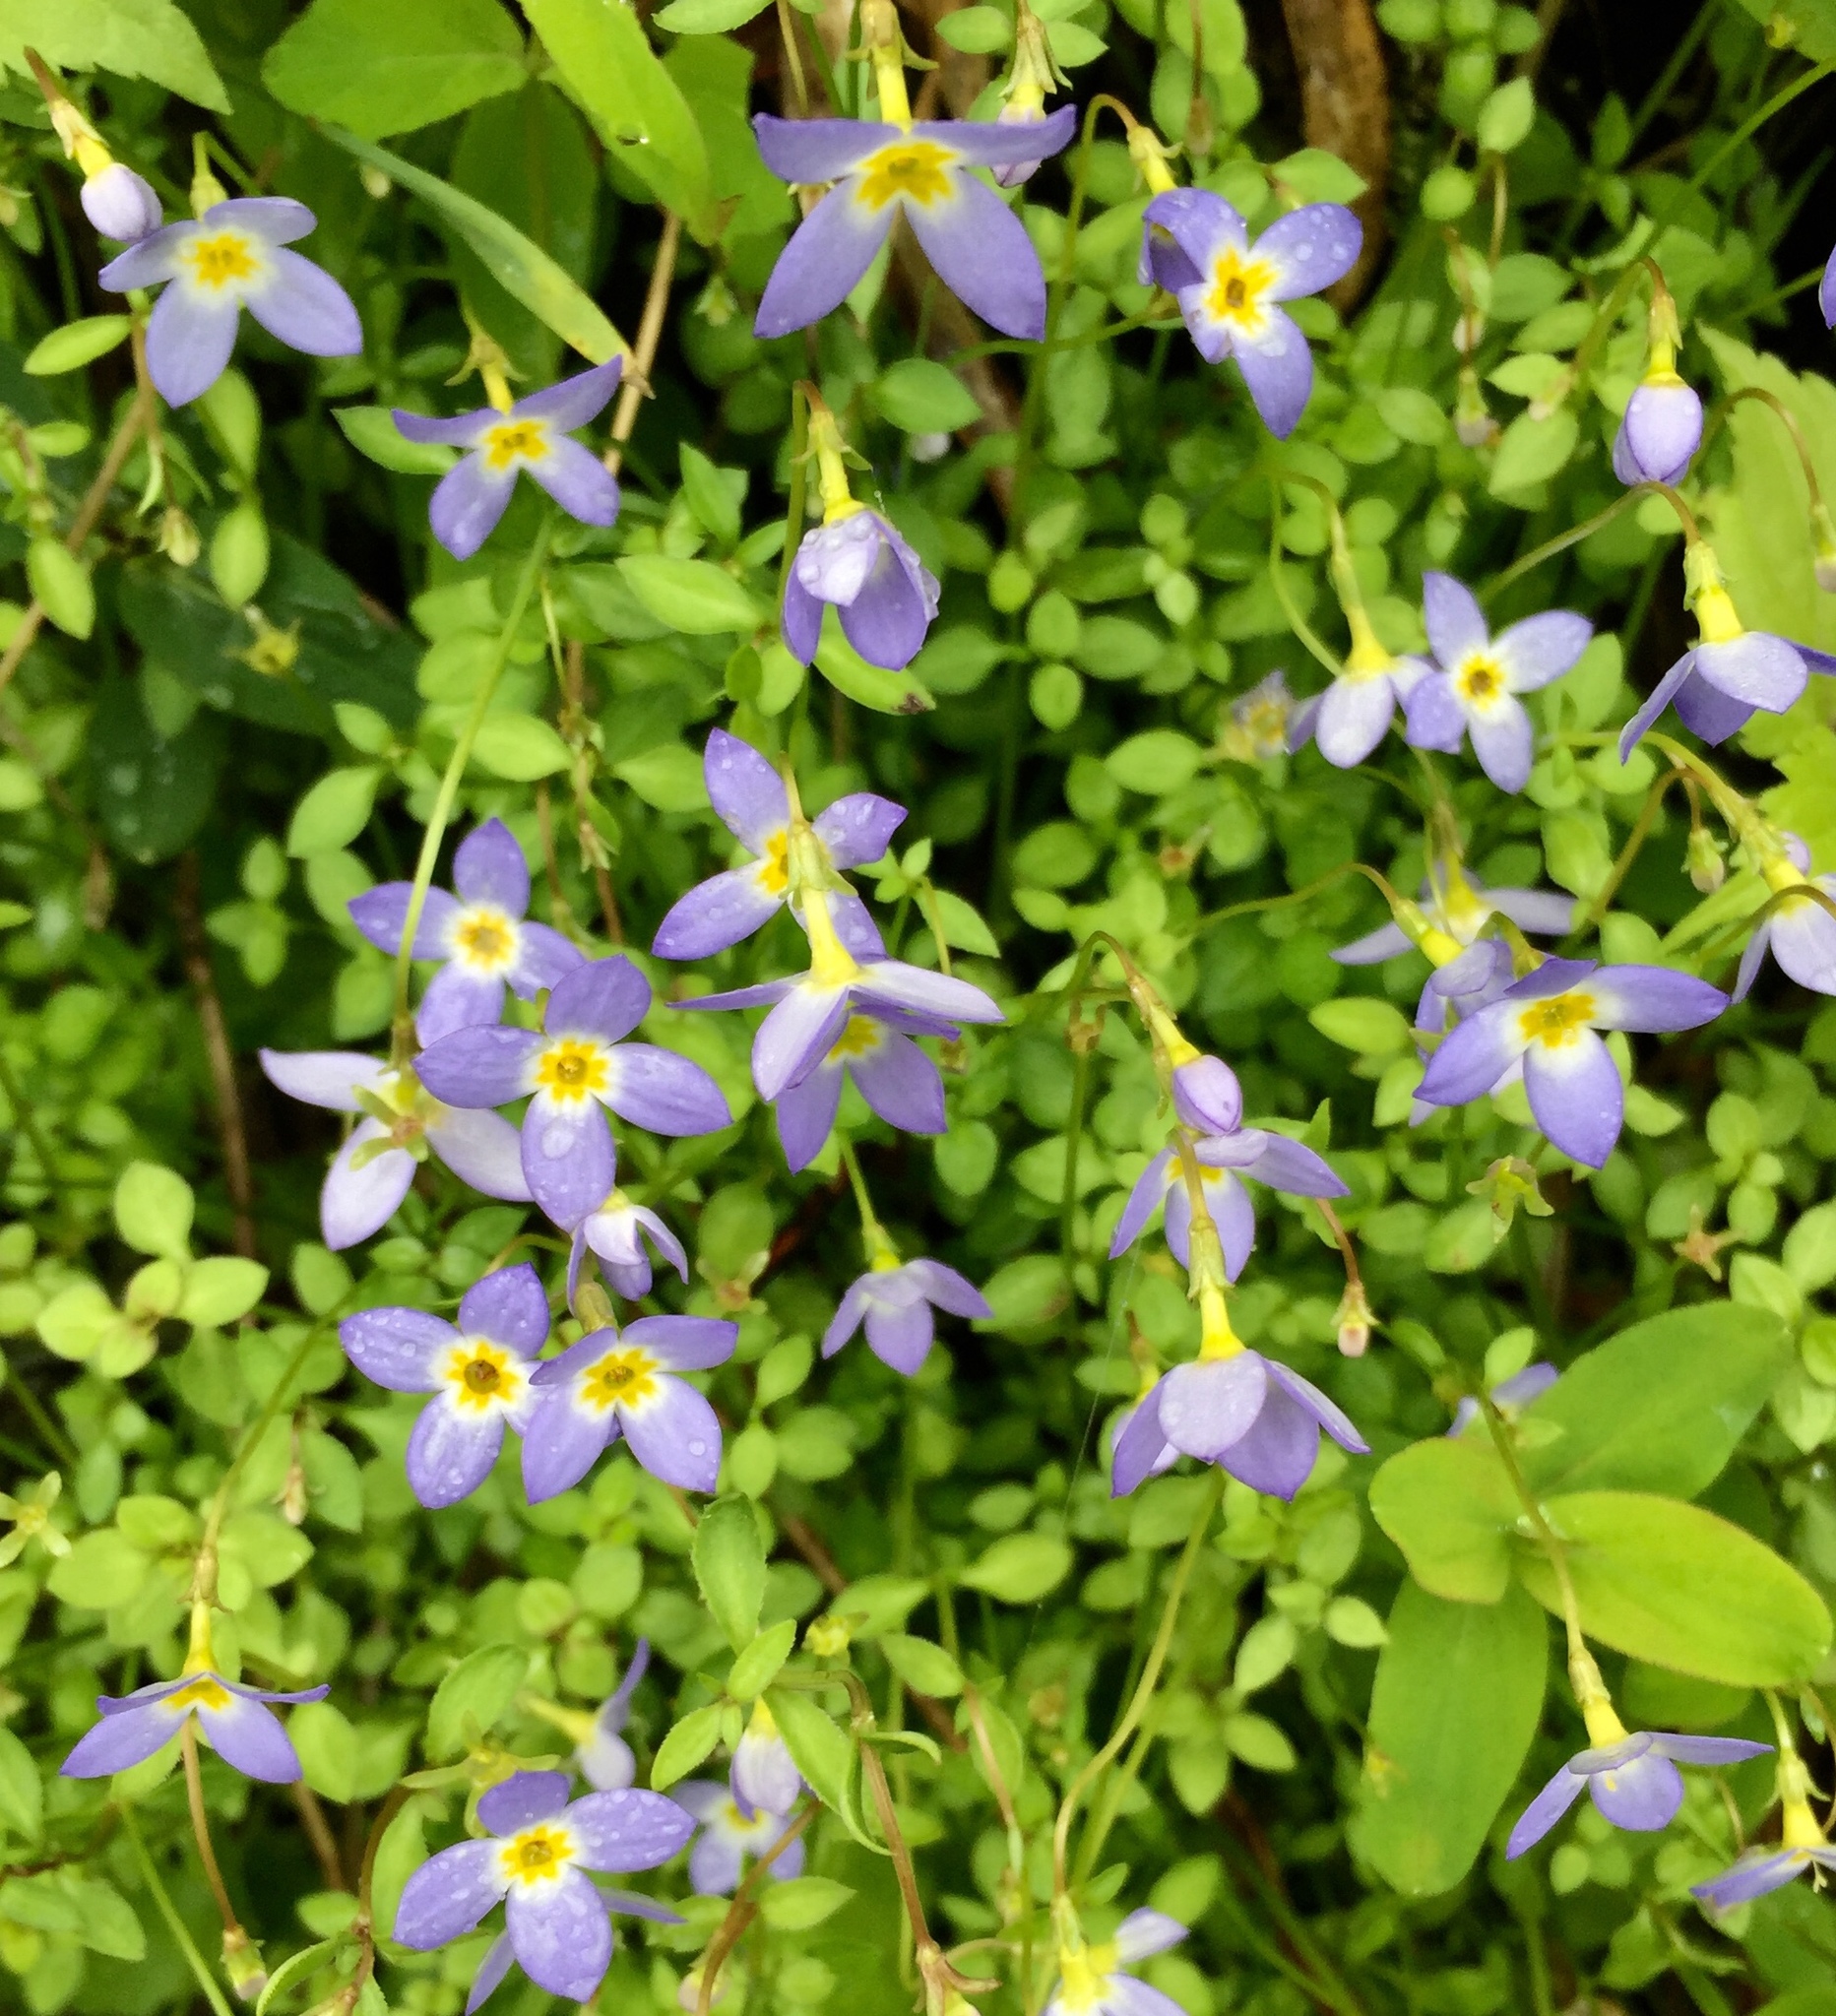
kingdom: Plantae
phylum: Tracheophyta
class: Magnoliopsida
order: Gentianales
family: Rubiaceae
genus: Houstonia
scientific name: Houstonia serpyllifolia
